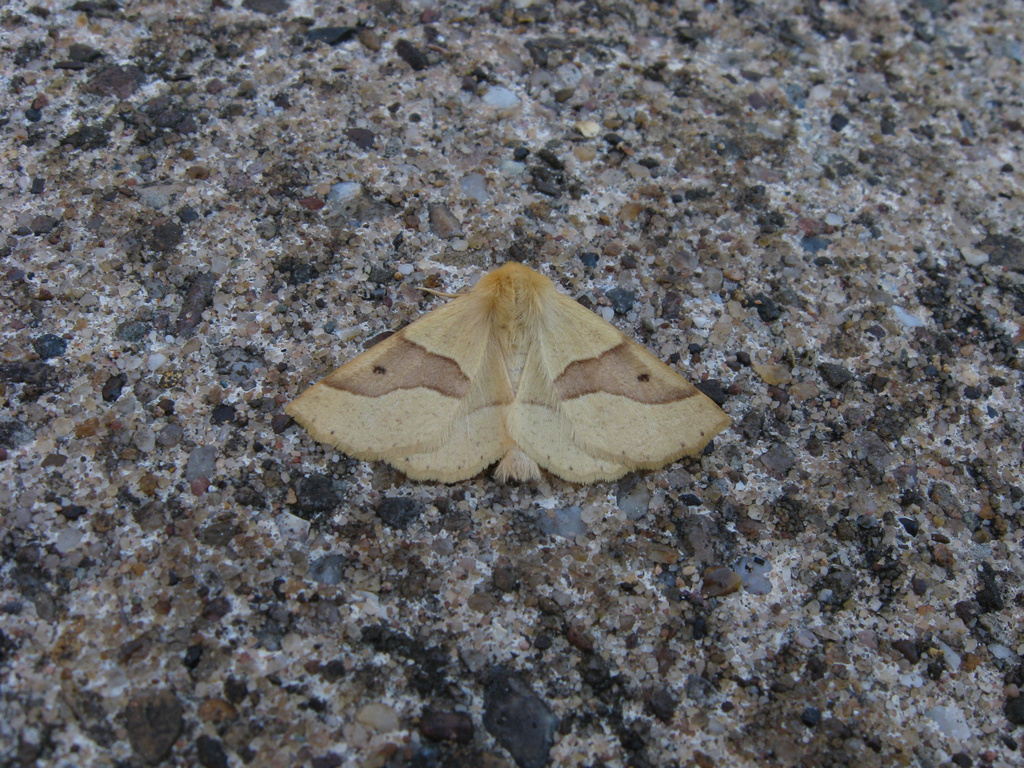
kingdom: Animalia
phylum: Arthropoda
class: Insecta
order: Lepidoptera
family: Geometridae
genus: Crocallis
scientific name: Crocallis elinguaria
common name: Scalloped oak
